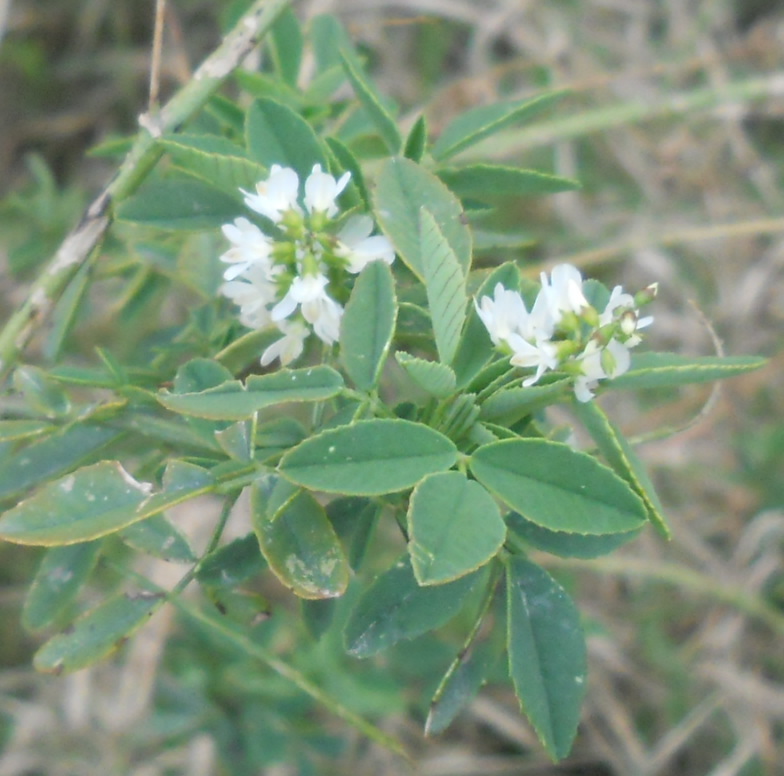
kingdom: Plantae
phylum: Tracheophyta
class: Magnoliopsida
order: Fabales
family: Fabaceae
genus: Melilotus
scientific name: Melilotus albus
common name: White melilot
